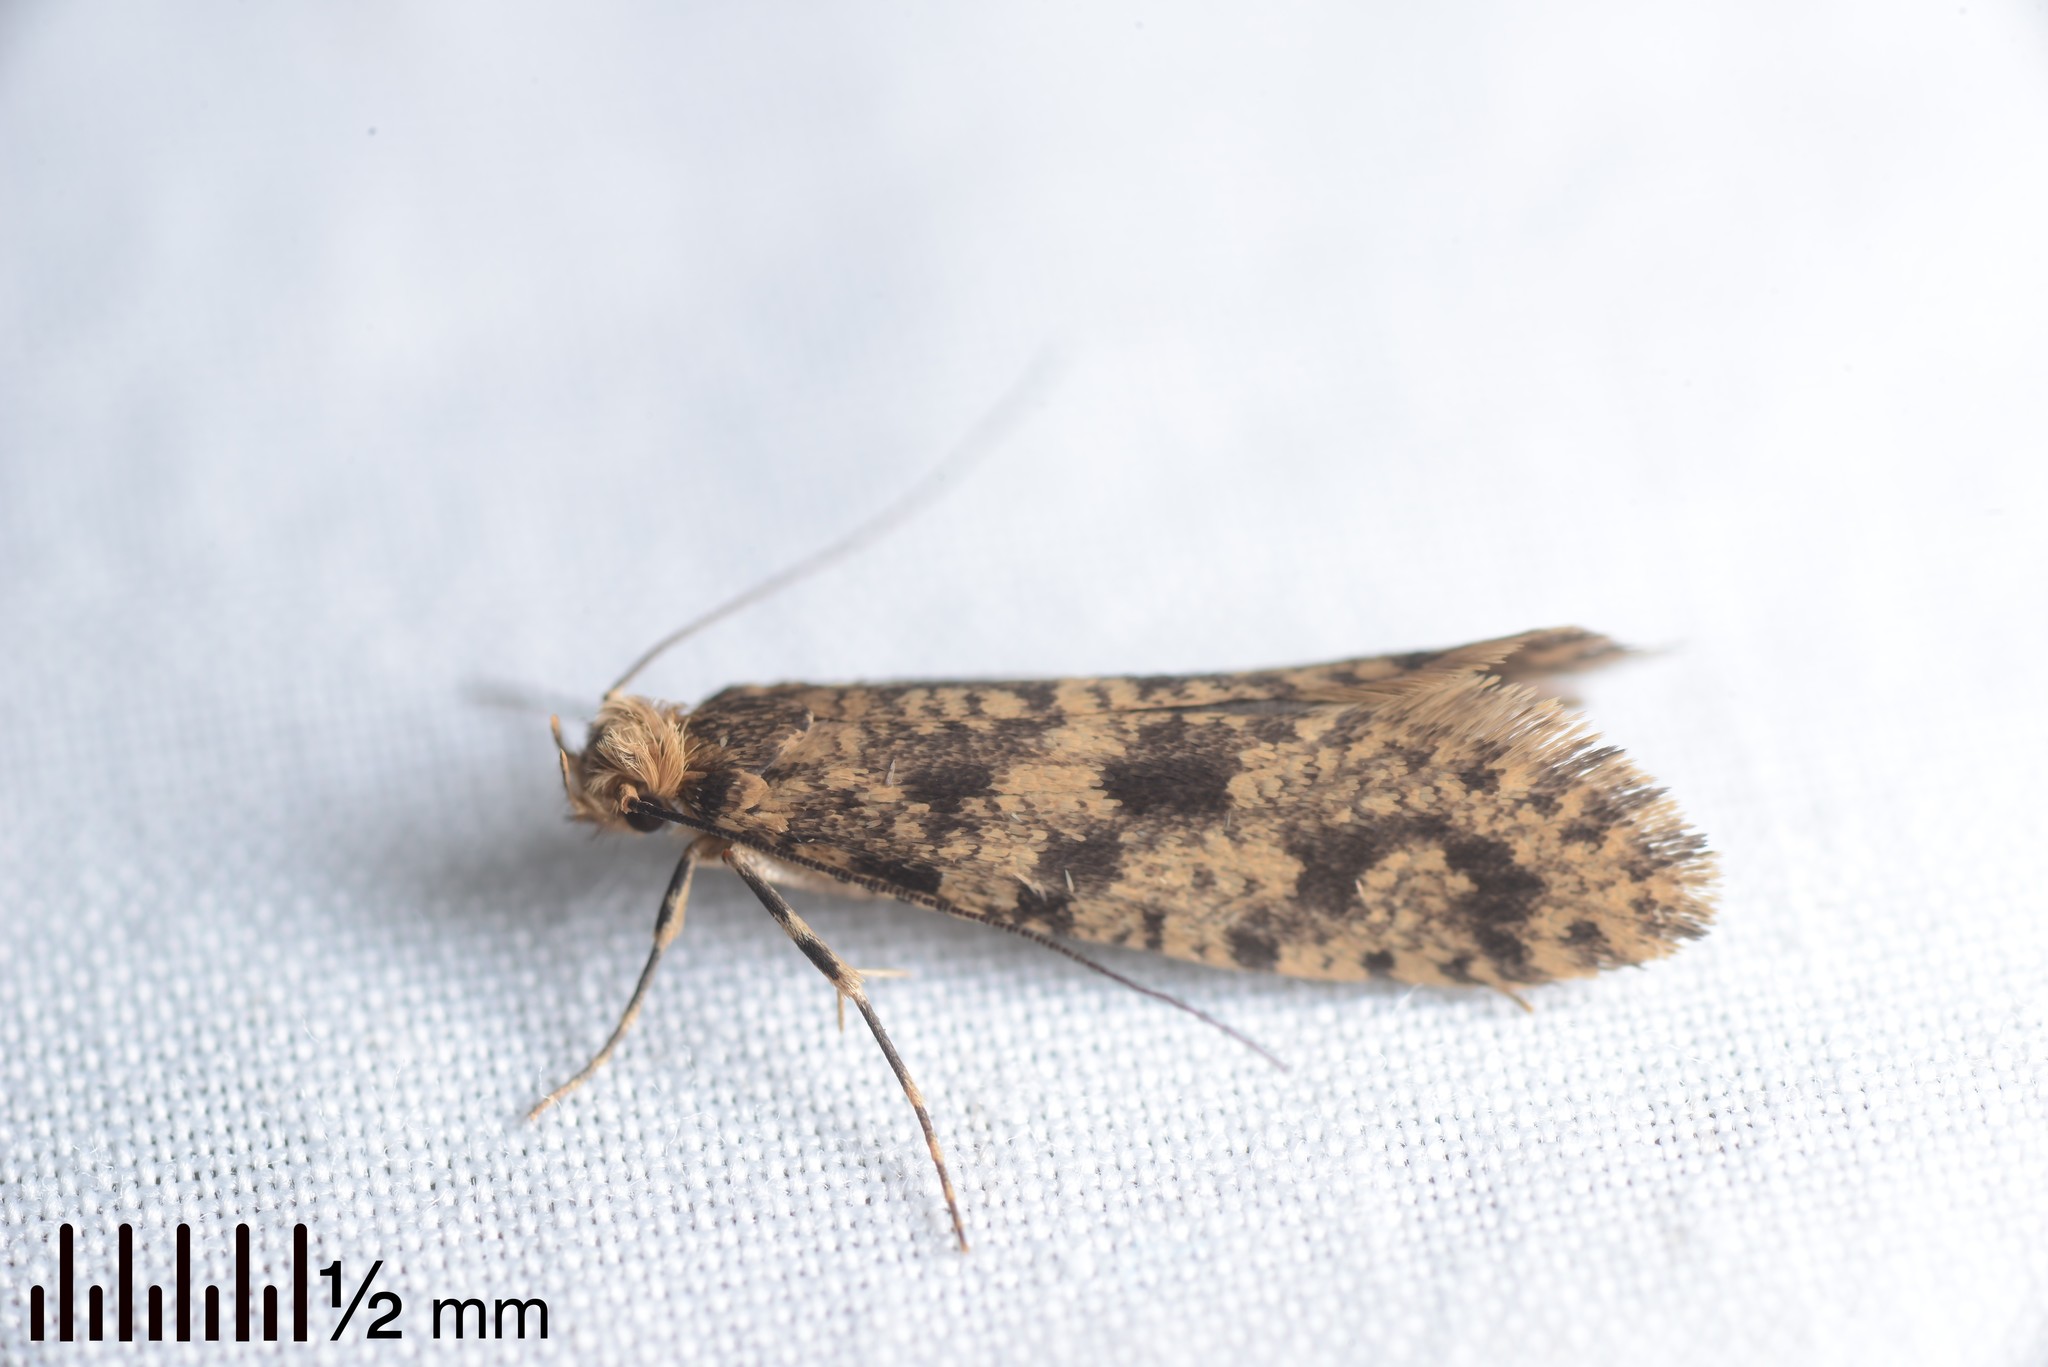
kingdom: Animalia
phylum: Arthropoda
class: Insecta
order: Lepidoptera
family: Tineidae
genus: Archyala
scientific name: Archyala terranea
